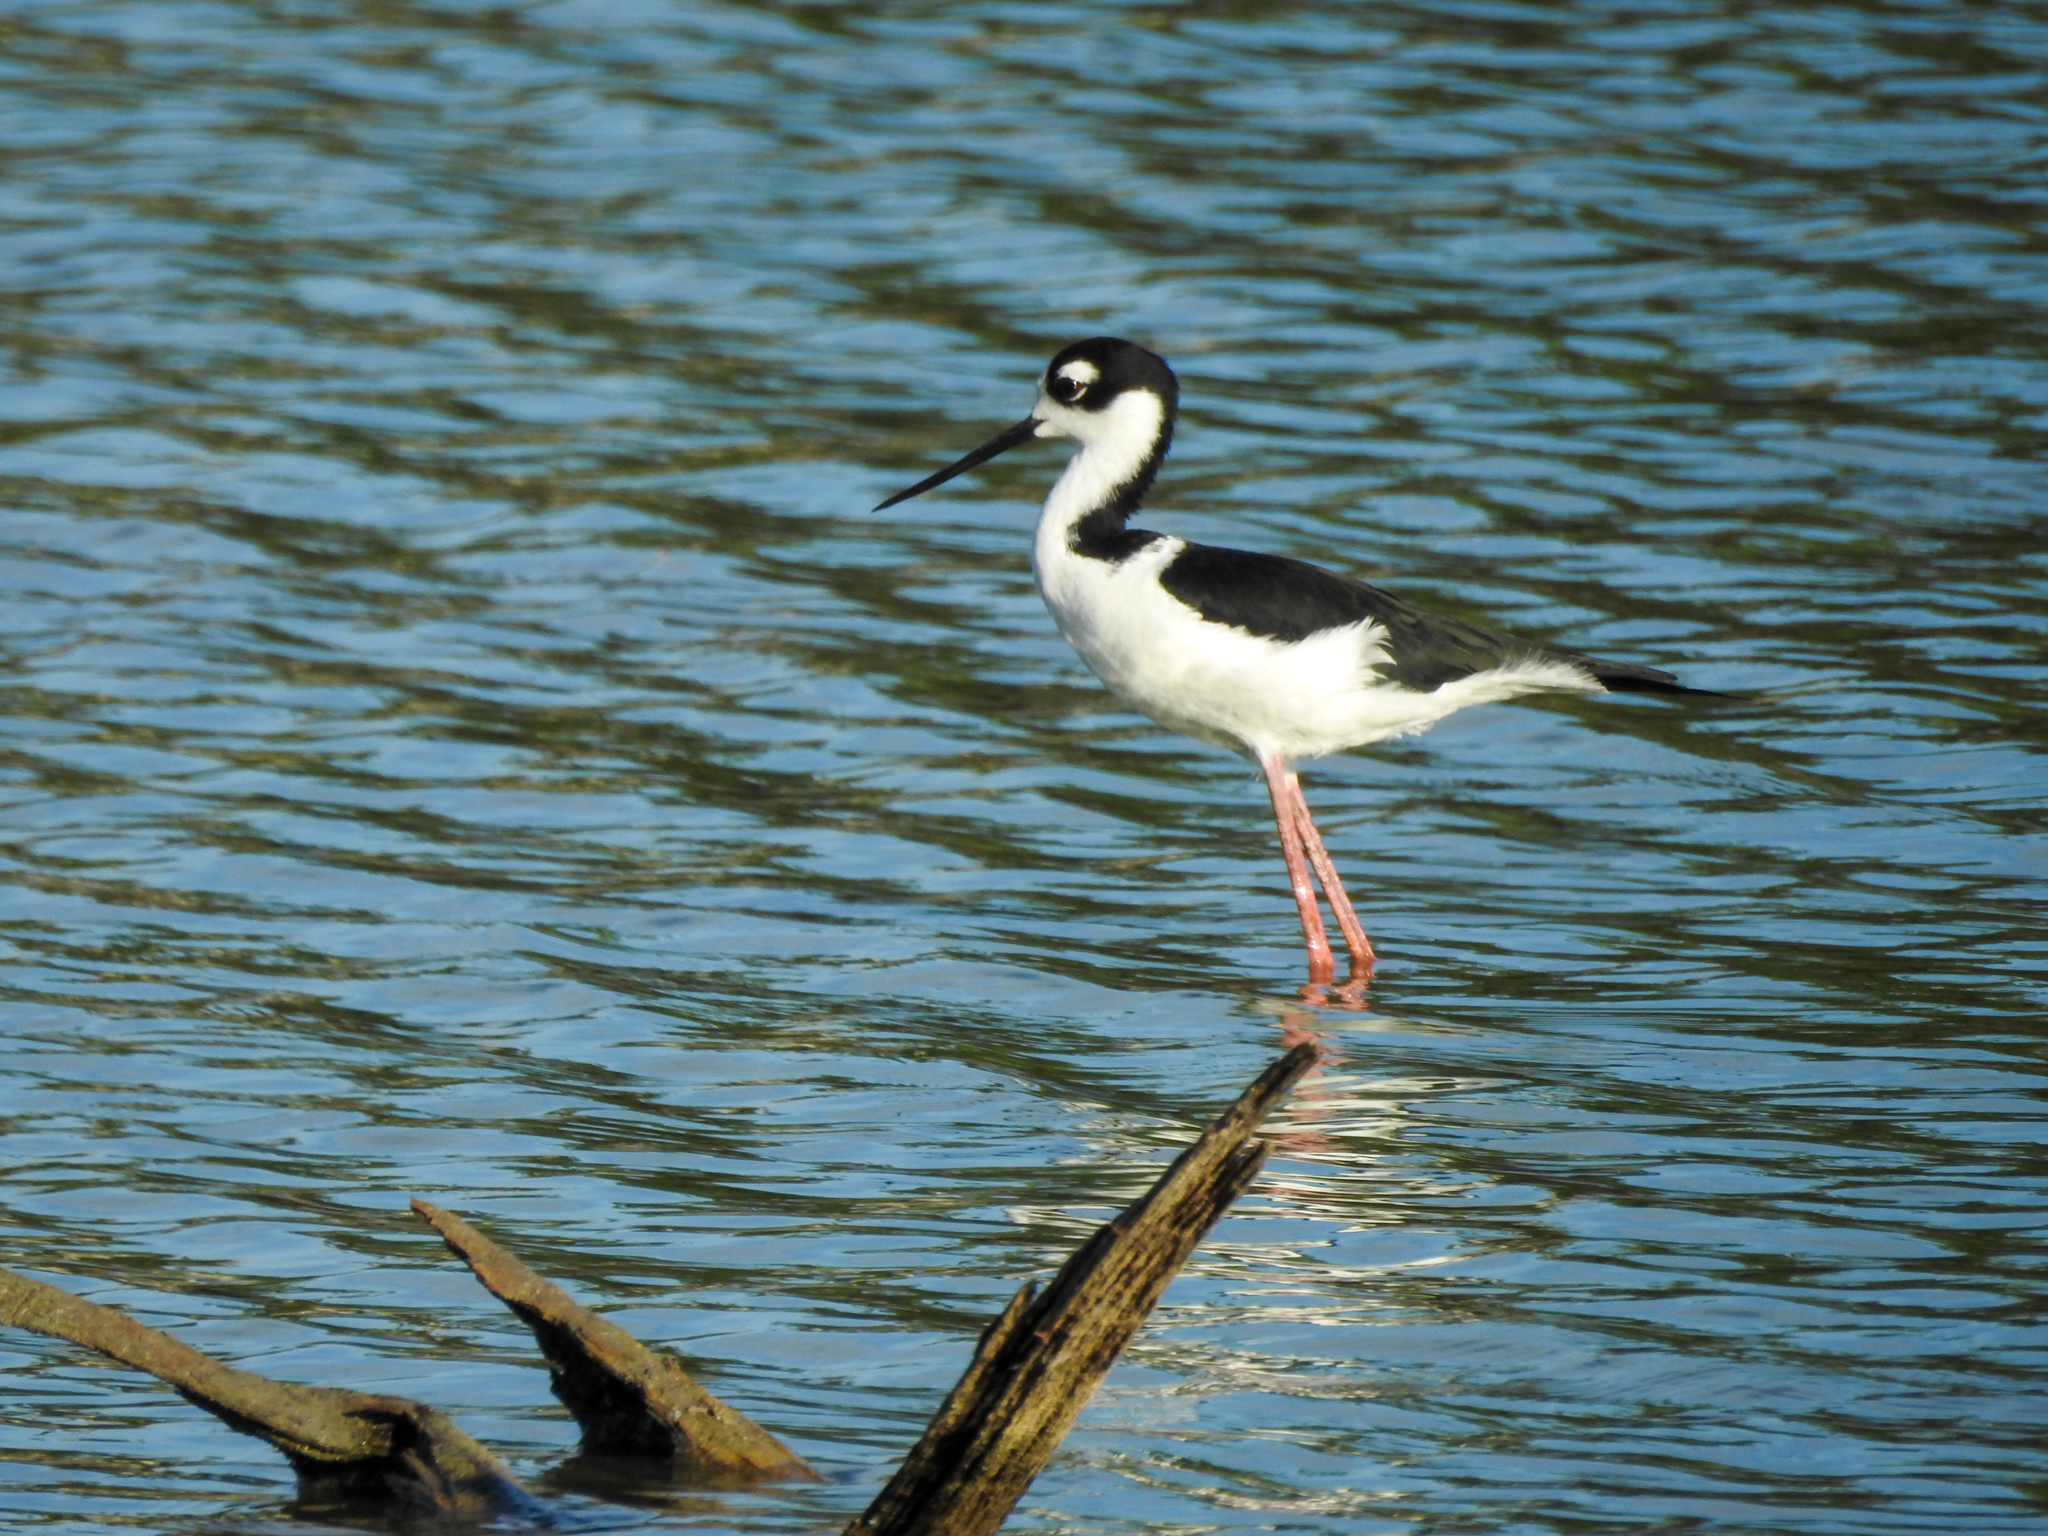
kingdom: Animalia
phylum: Chordata
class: Aves
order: Charadriiformes
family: Recurvirostridae
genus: Himantopus
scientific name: Himantopus mexicanus
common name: Black-necked stilt
